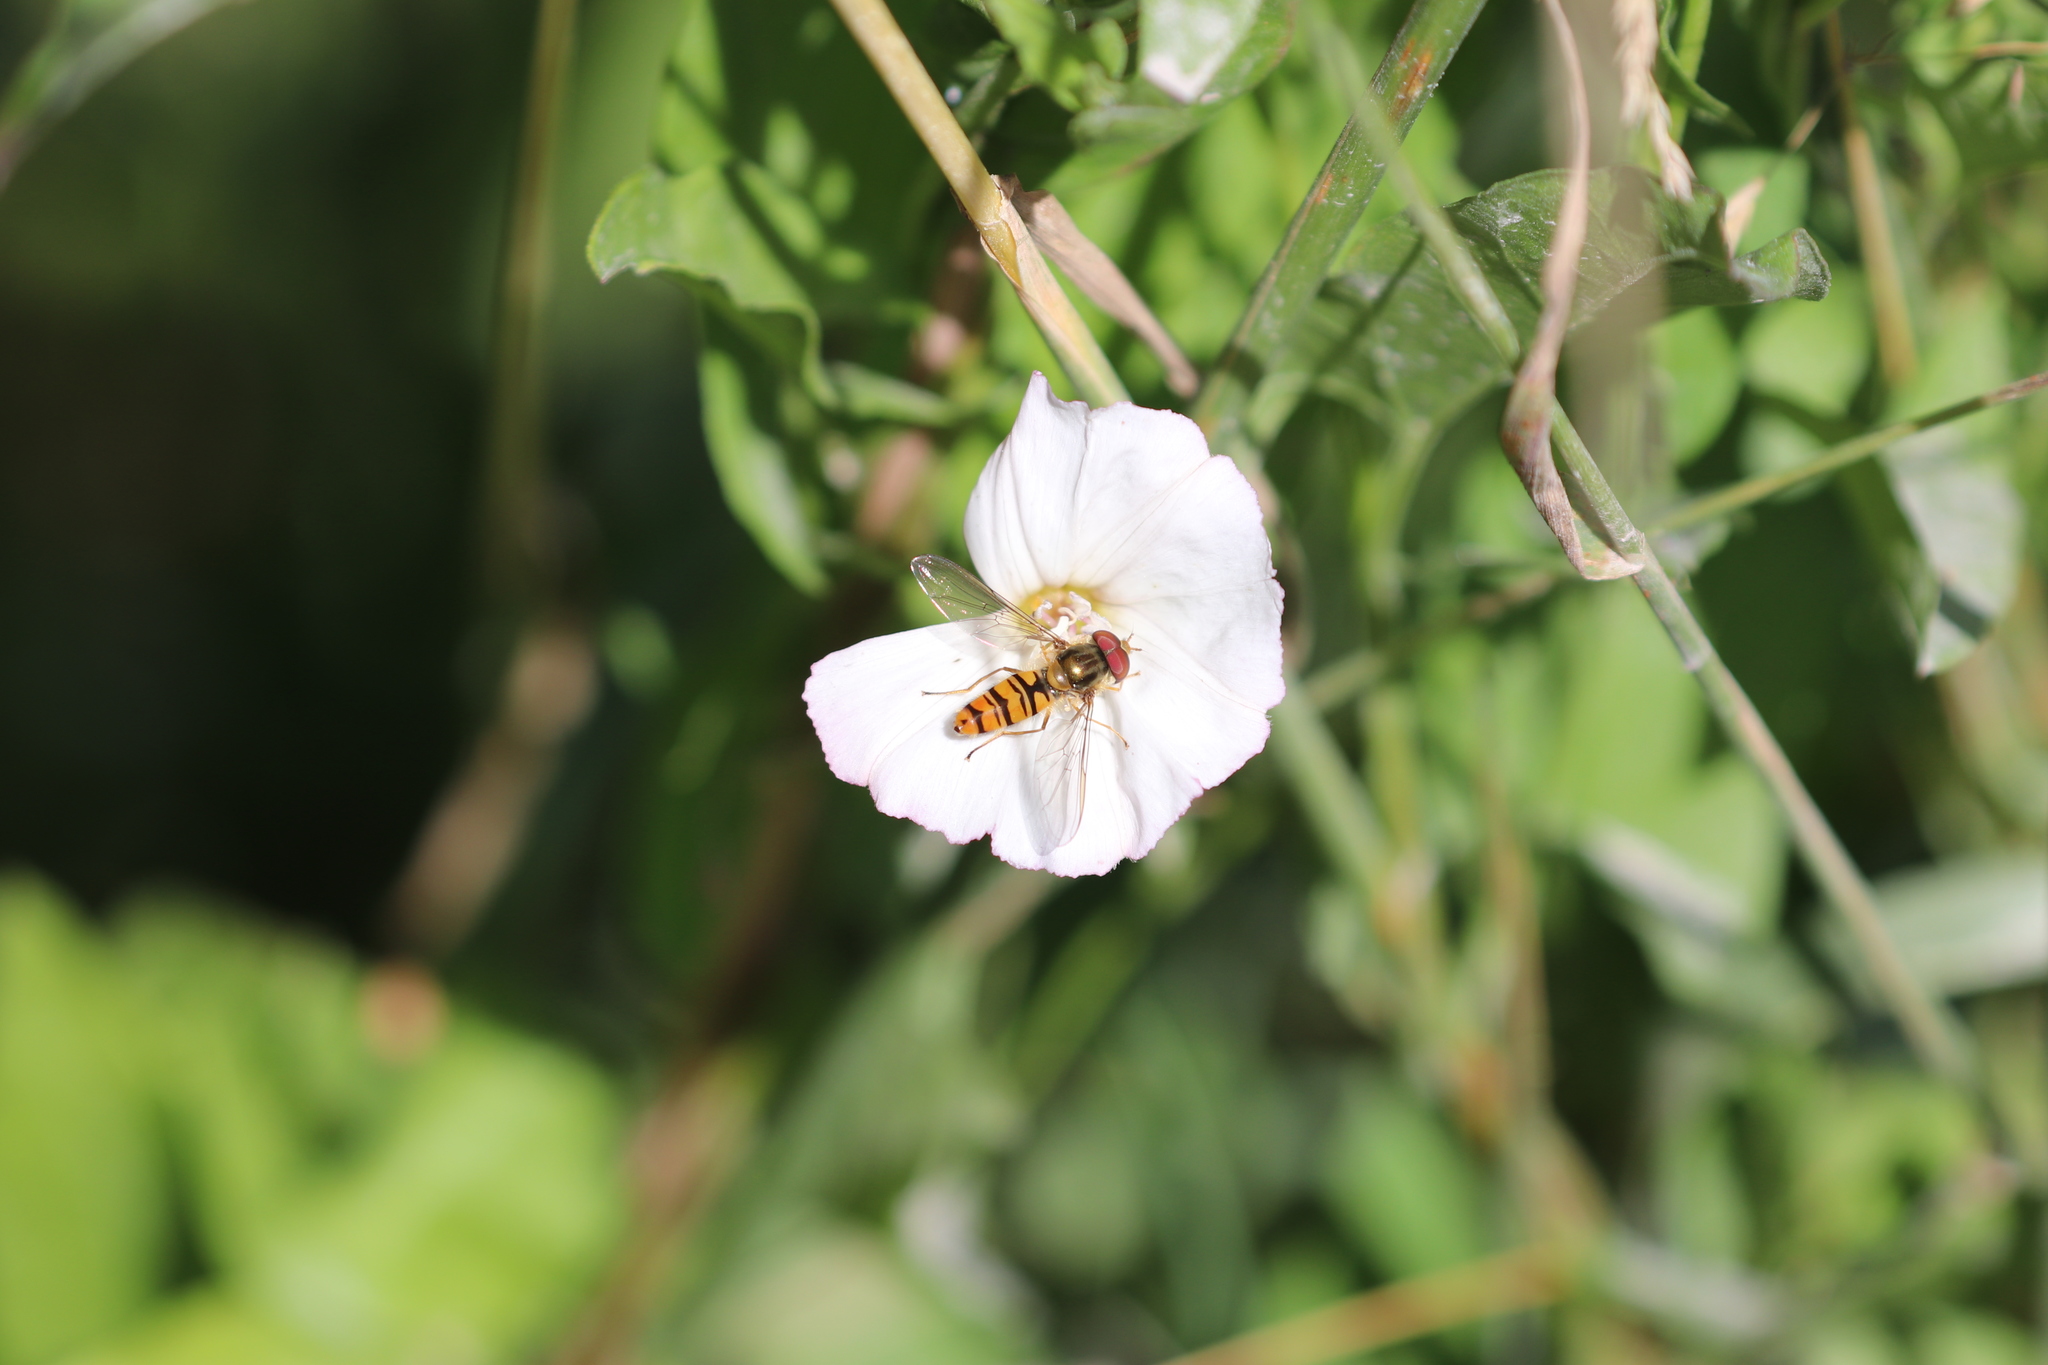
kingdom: Animalia
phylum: Arthropoda
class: Insecta
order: Diptera
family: Syrphidae
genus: Episyrphus
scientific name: Episyrphus balteatus
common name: Marmalade hoverfly
